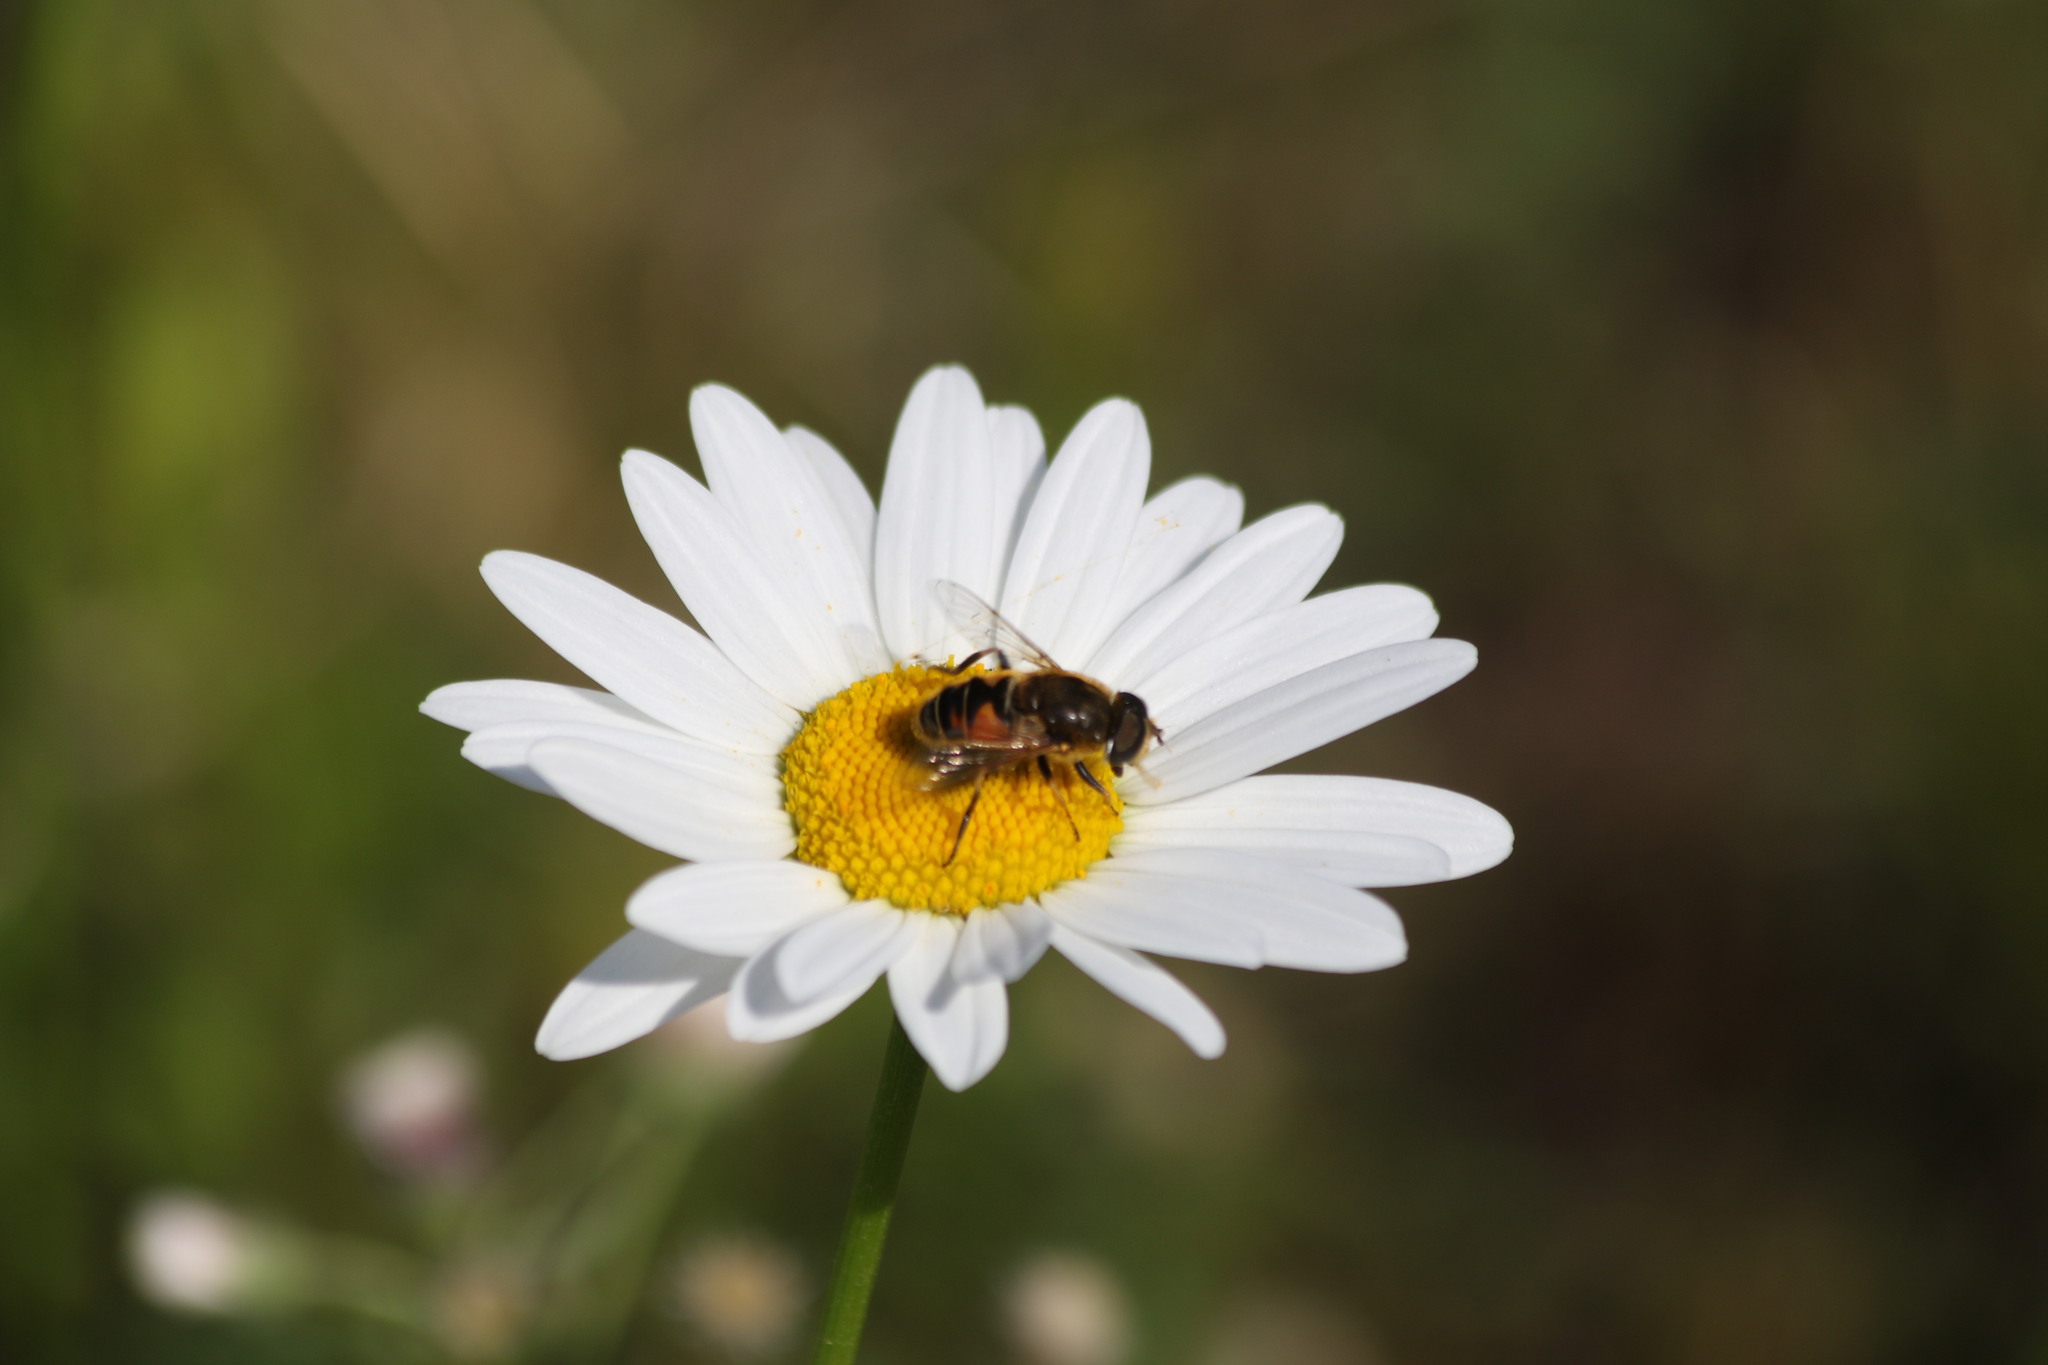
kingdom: Animalia
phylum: Arthropoda
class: Insecta
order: Diptera
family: Syrphidae
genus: Eristalis
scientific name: Eristalis nemorum
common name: Orange-spined drone fly
